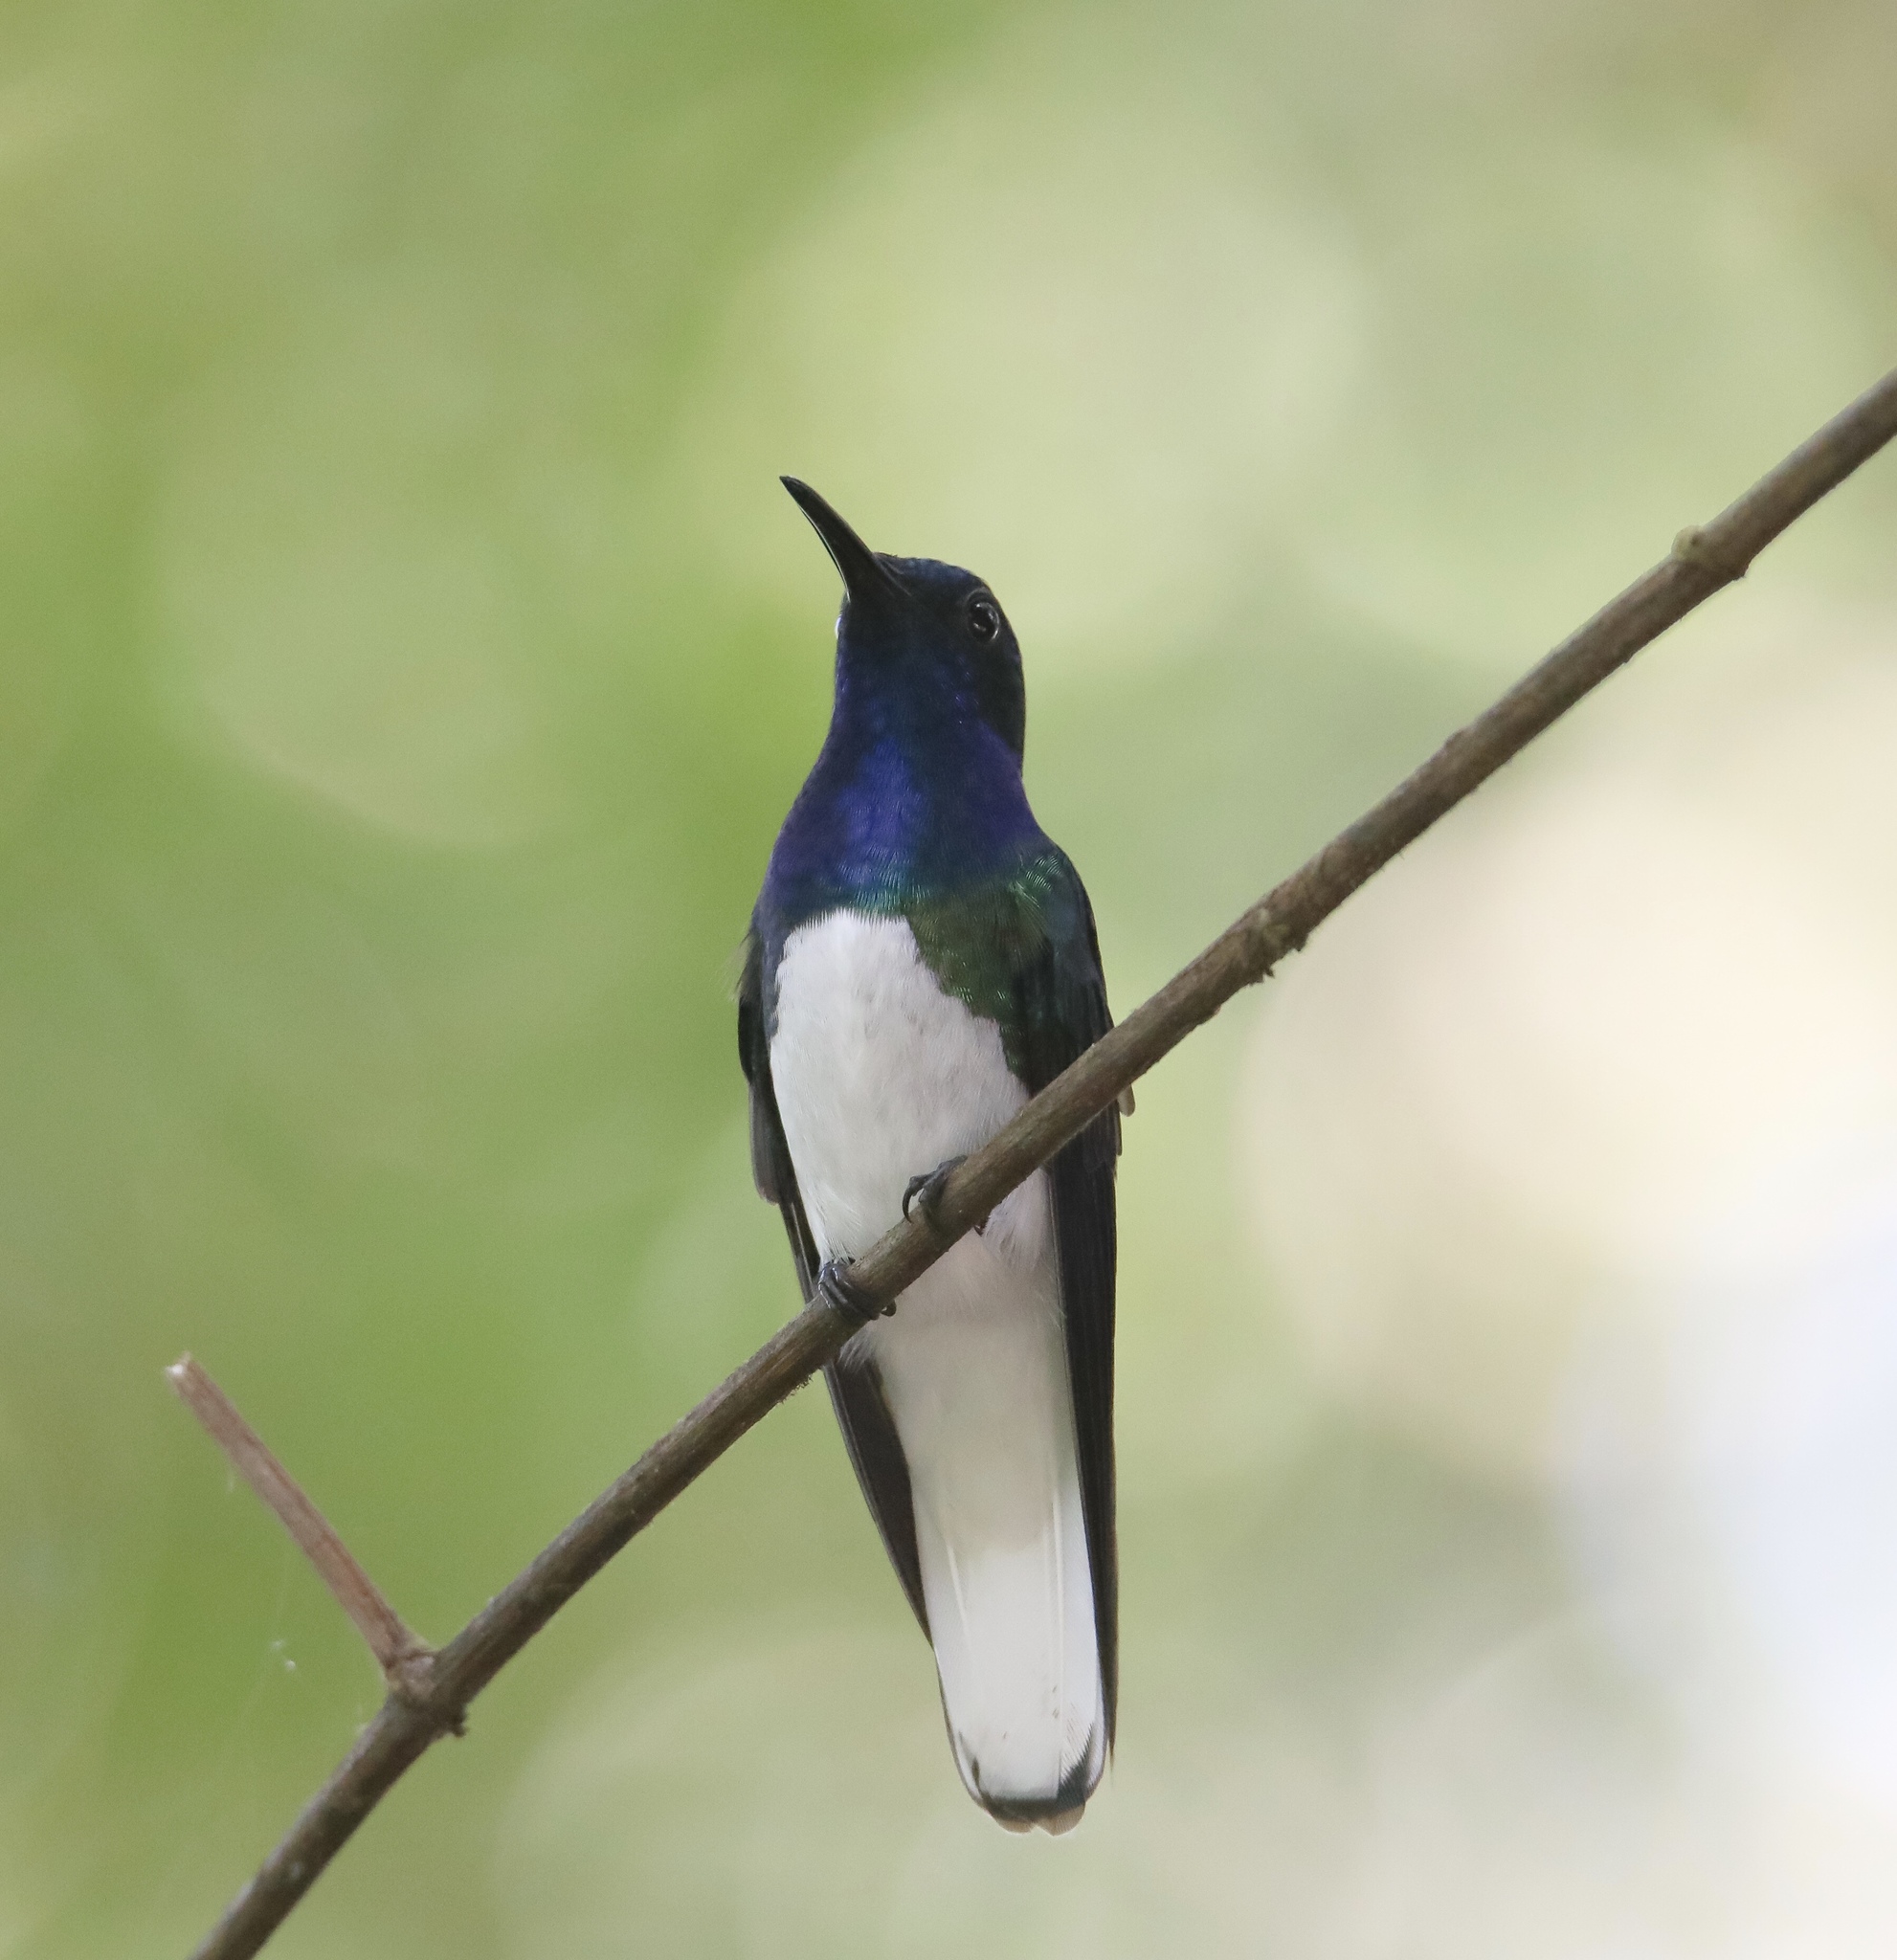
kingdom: Animalia
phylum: Chordata
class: Aves
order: Apodiformes
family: Trochilidae
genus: Florisuga
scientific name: Florisuga mellivora
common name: White-necked jacobin
